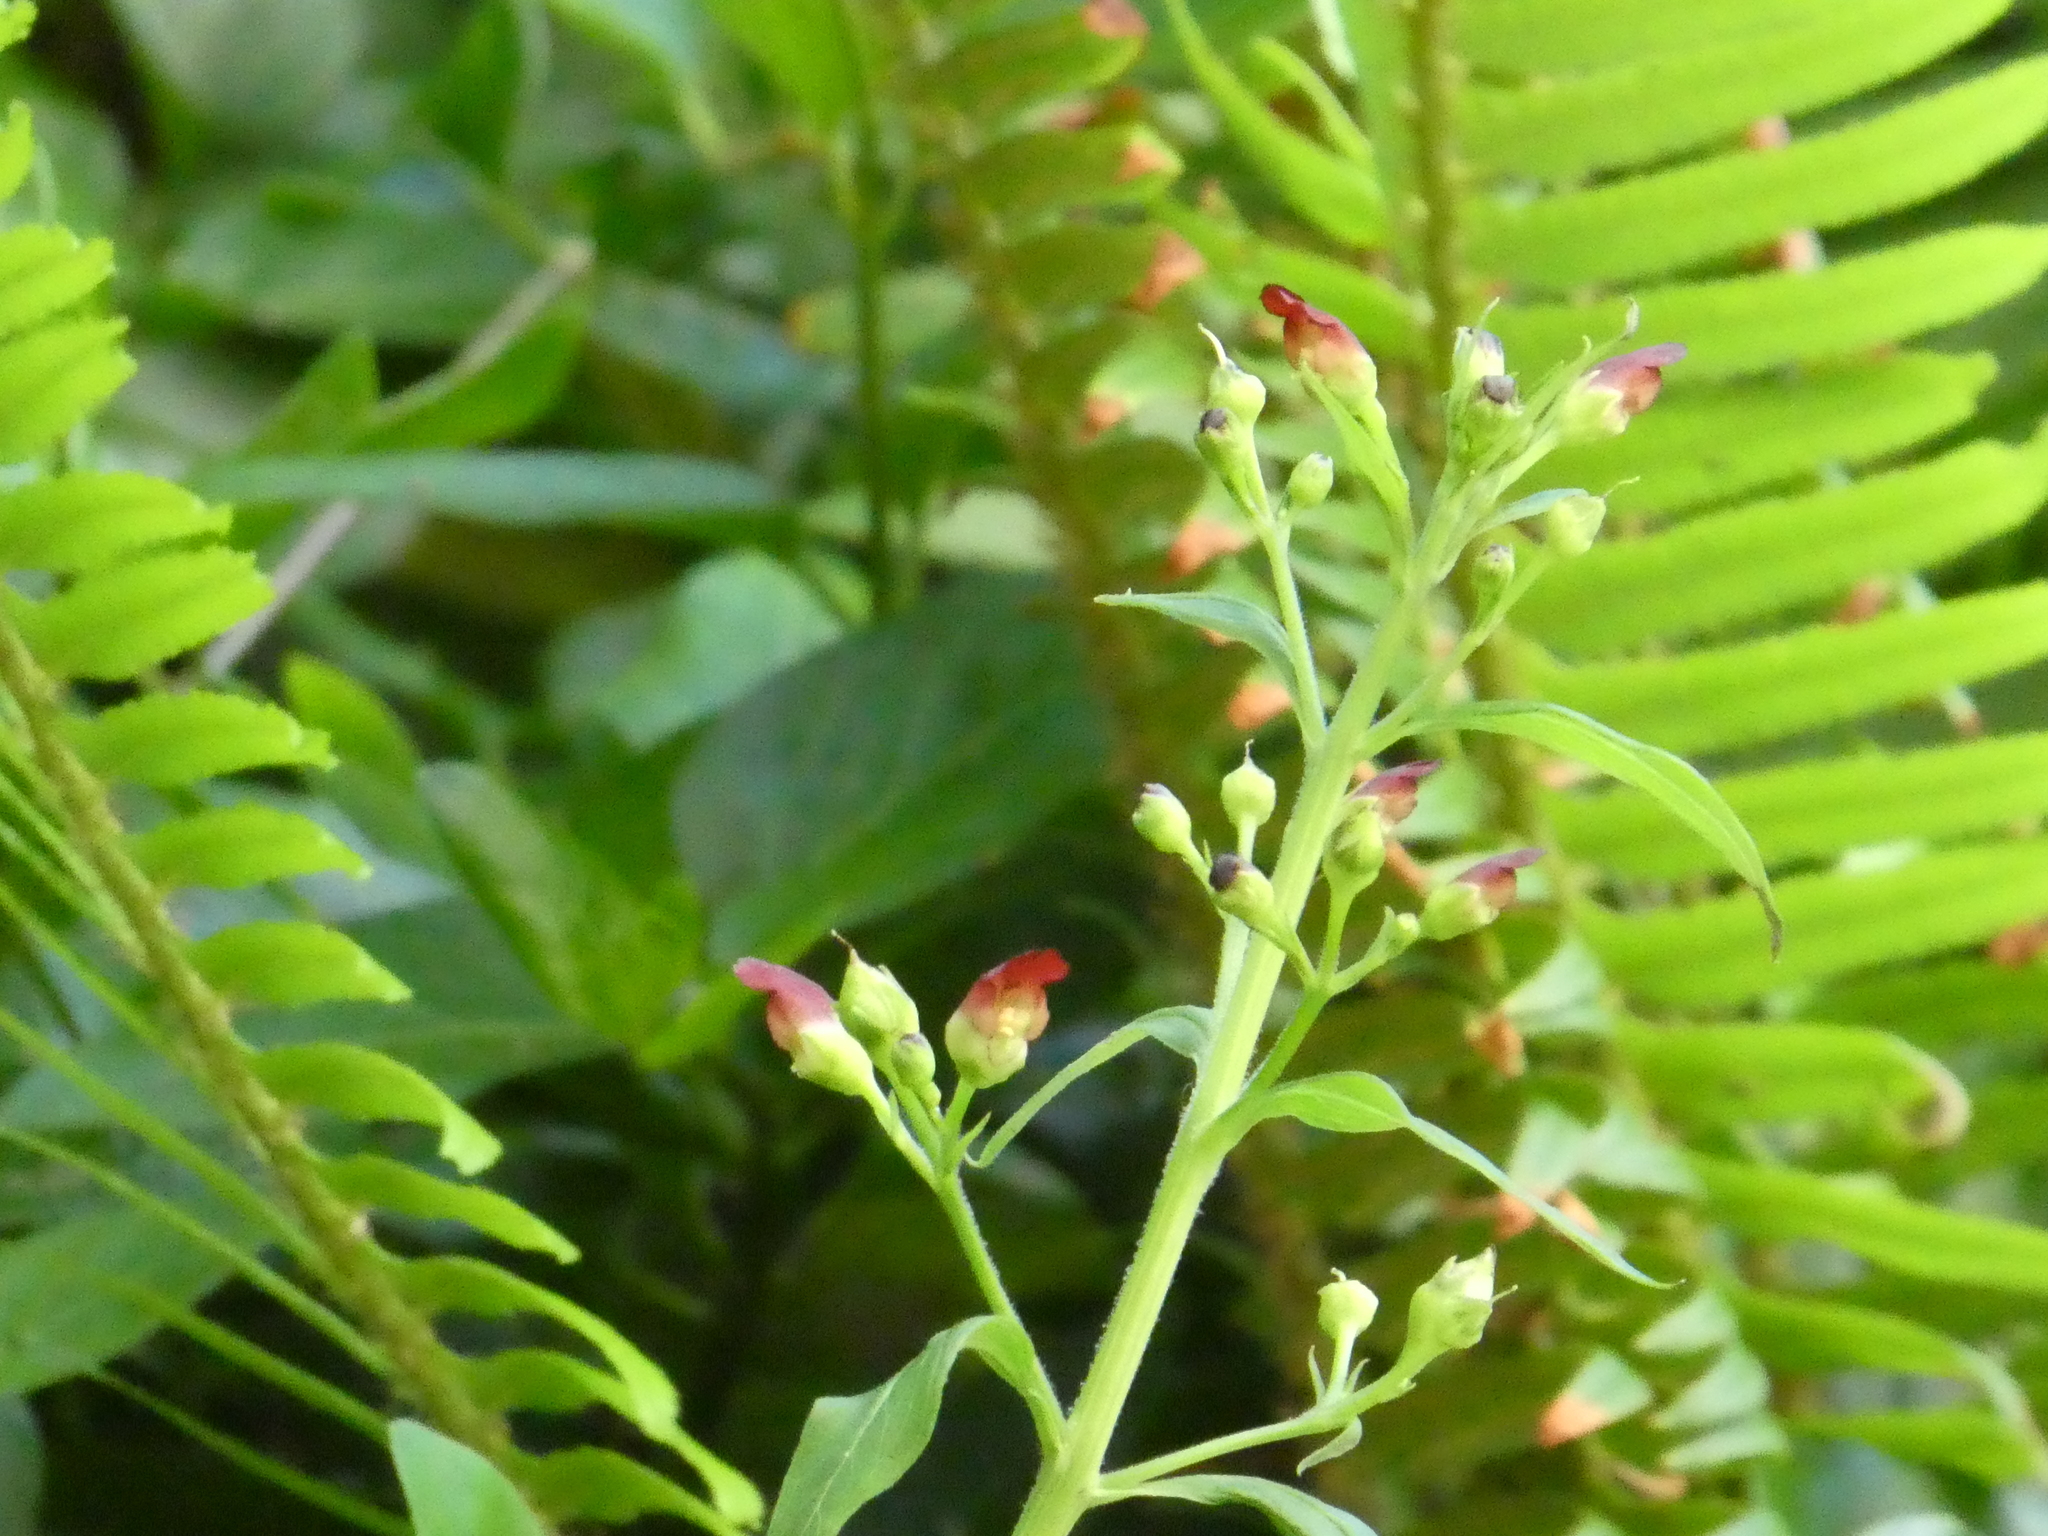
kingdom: Plantae
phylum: Tracheophyta
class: Magnoliopsida
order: Lamiales
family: Scrophulariaceae
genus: Scrophularia
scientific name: Scrophularia californica
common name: California figwort
